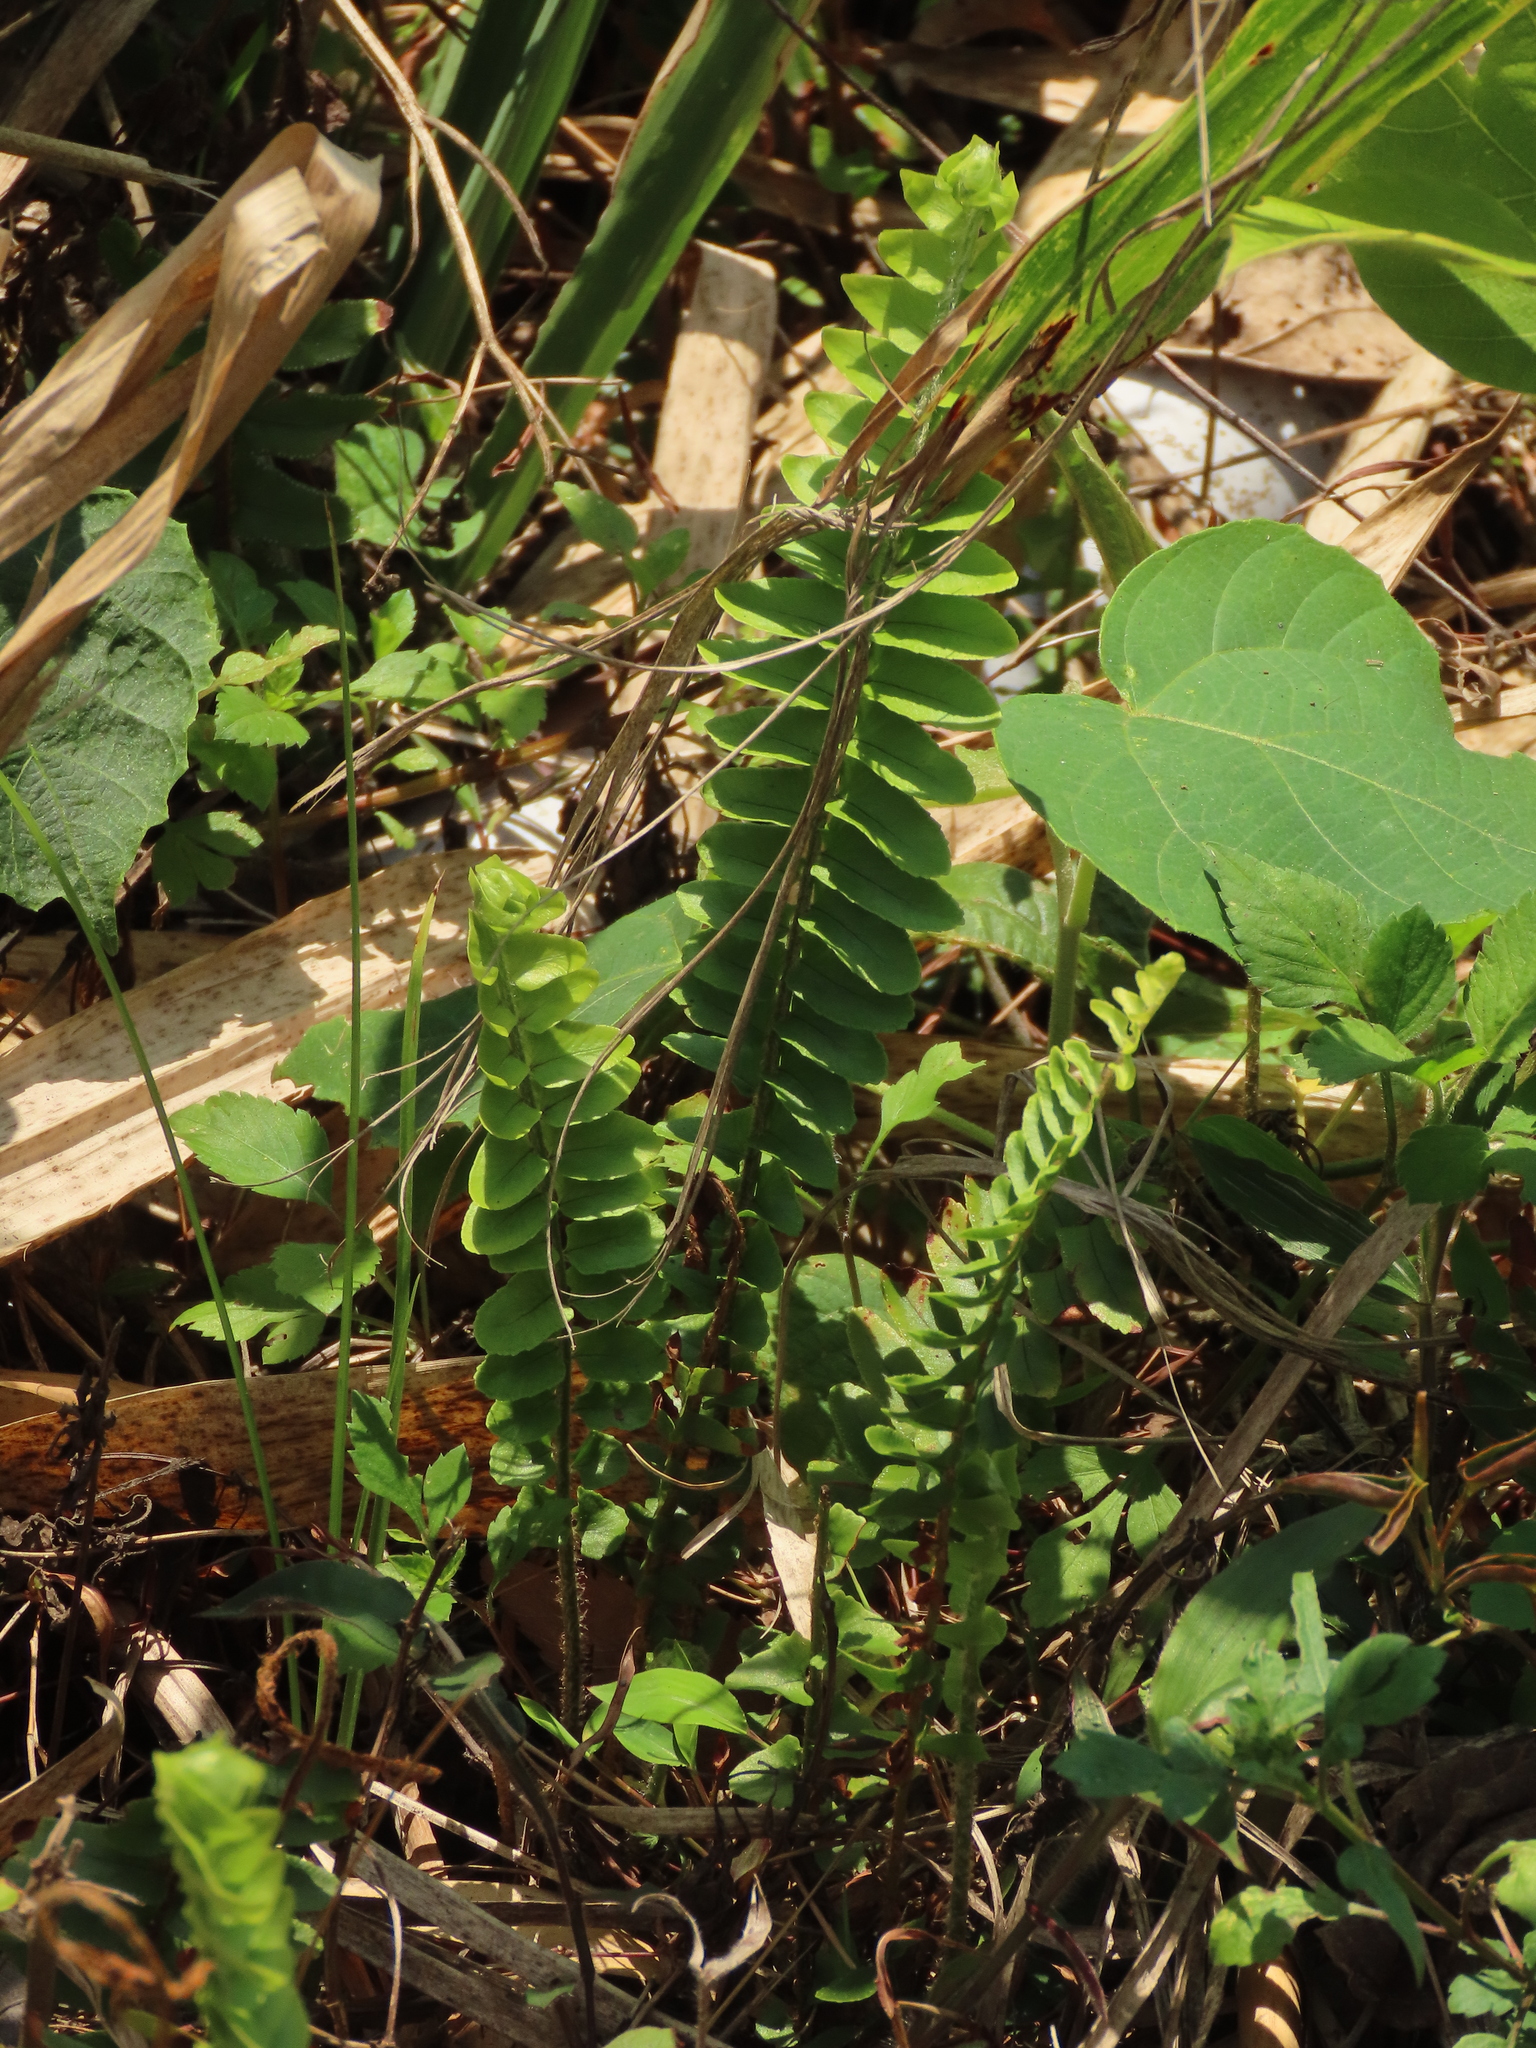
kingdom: Plantae
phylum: Tracheophyta
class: Polypodiopsida
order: Polypodiales
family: Nephrolepidaceae
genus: Nephrolepis
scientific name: Nephrolepis cordifolia
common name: Narrow swordfern
